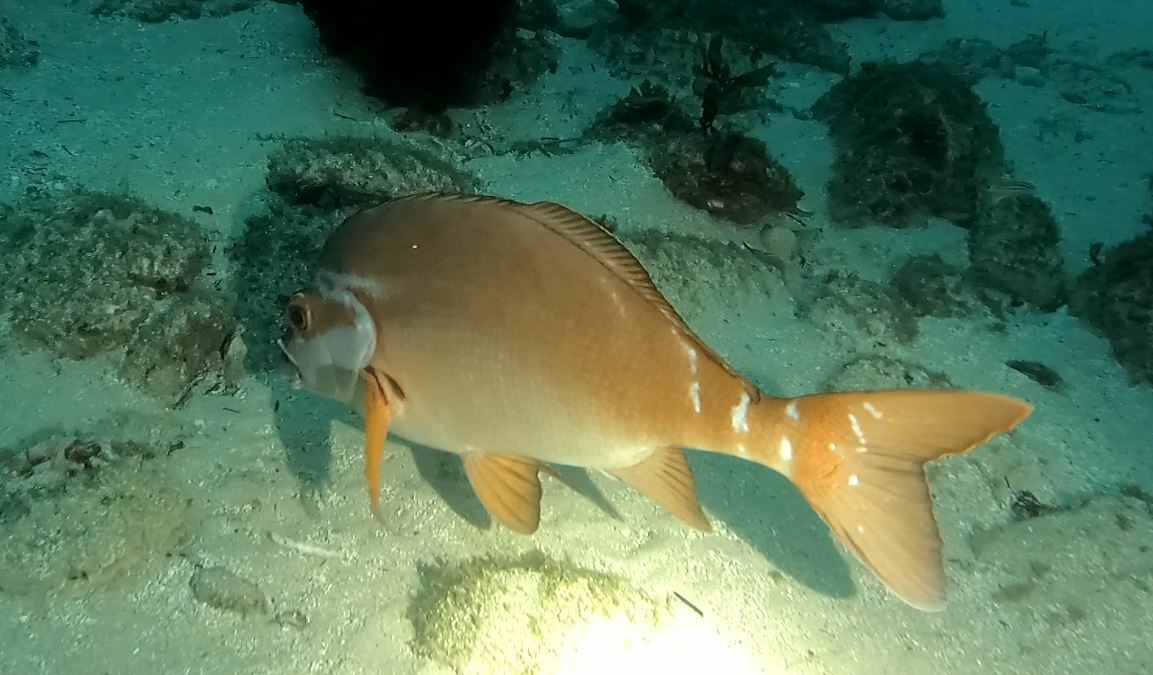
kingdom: Animalia
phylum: Chordata
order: Perciformes
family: Latridae
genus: Morwong
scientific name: Morwong fuscus
